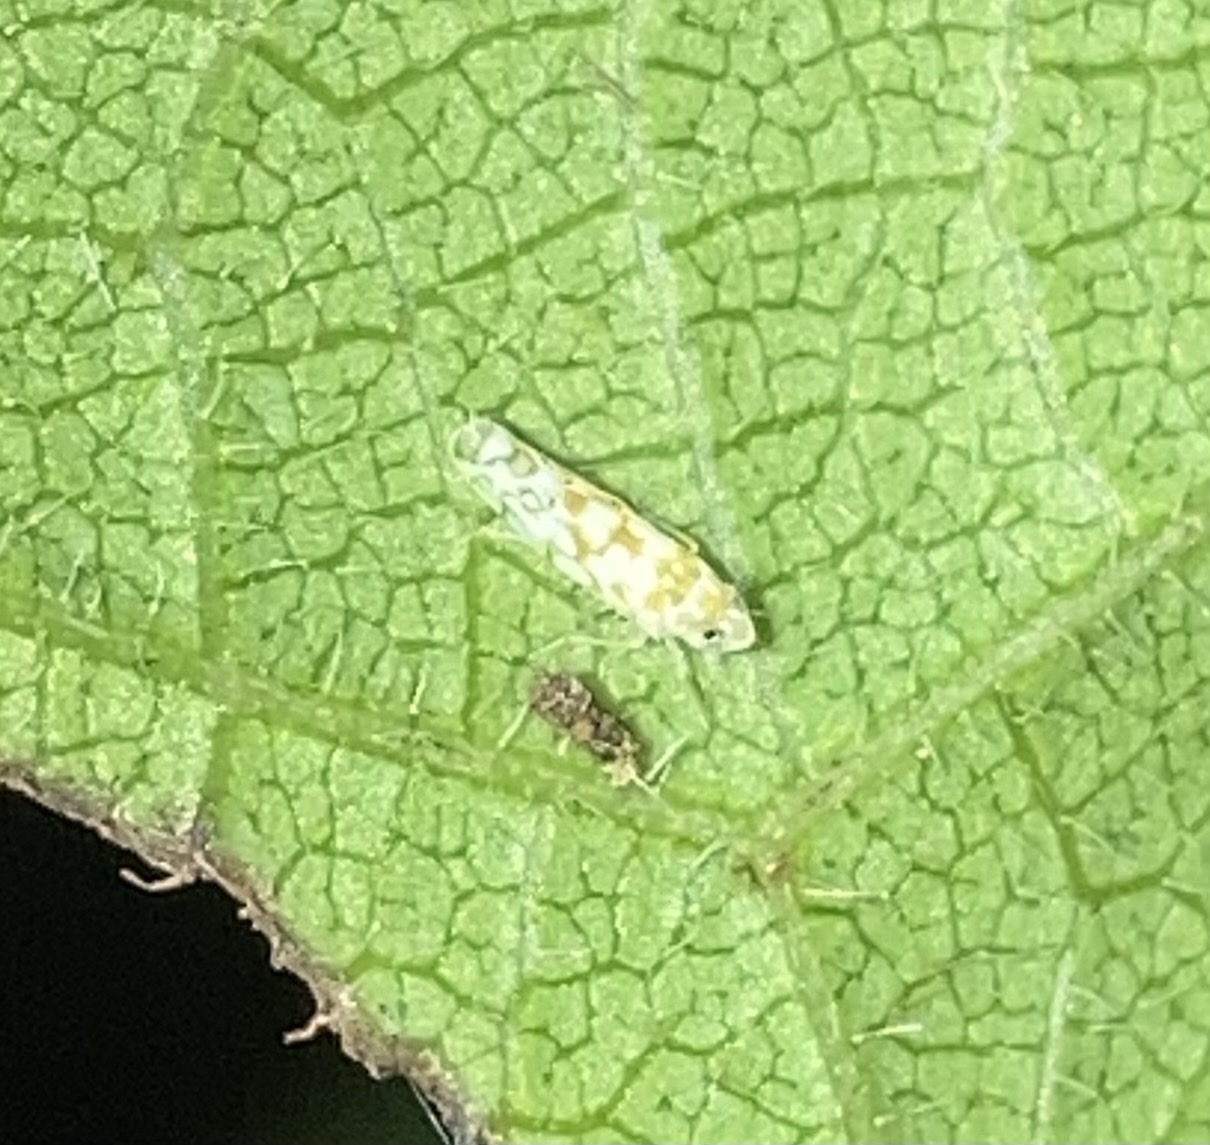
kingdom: Animalia
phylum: Arthropoda
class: Insecta
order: Hemiptera
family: Cicadellidae
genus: Protalebra
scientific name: Protalebra nexa
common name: Leafhopper
